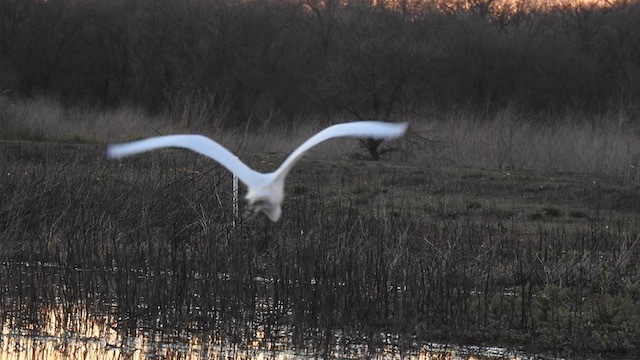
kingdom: Animalia
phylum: Chordata
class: Aves
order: Pelecaniformes
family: Ardeidae
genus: Ardea
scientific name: Ardea alba
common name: Great egret
